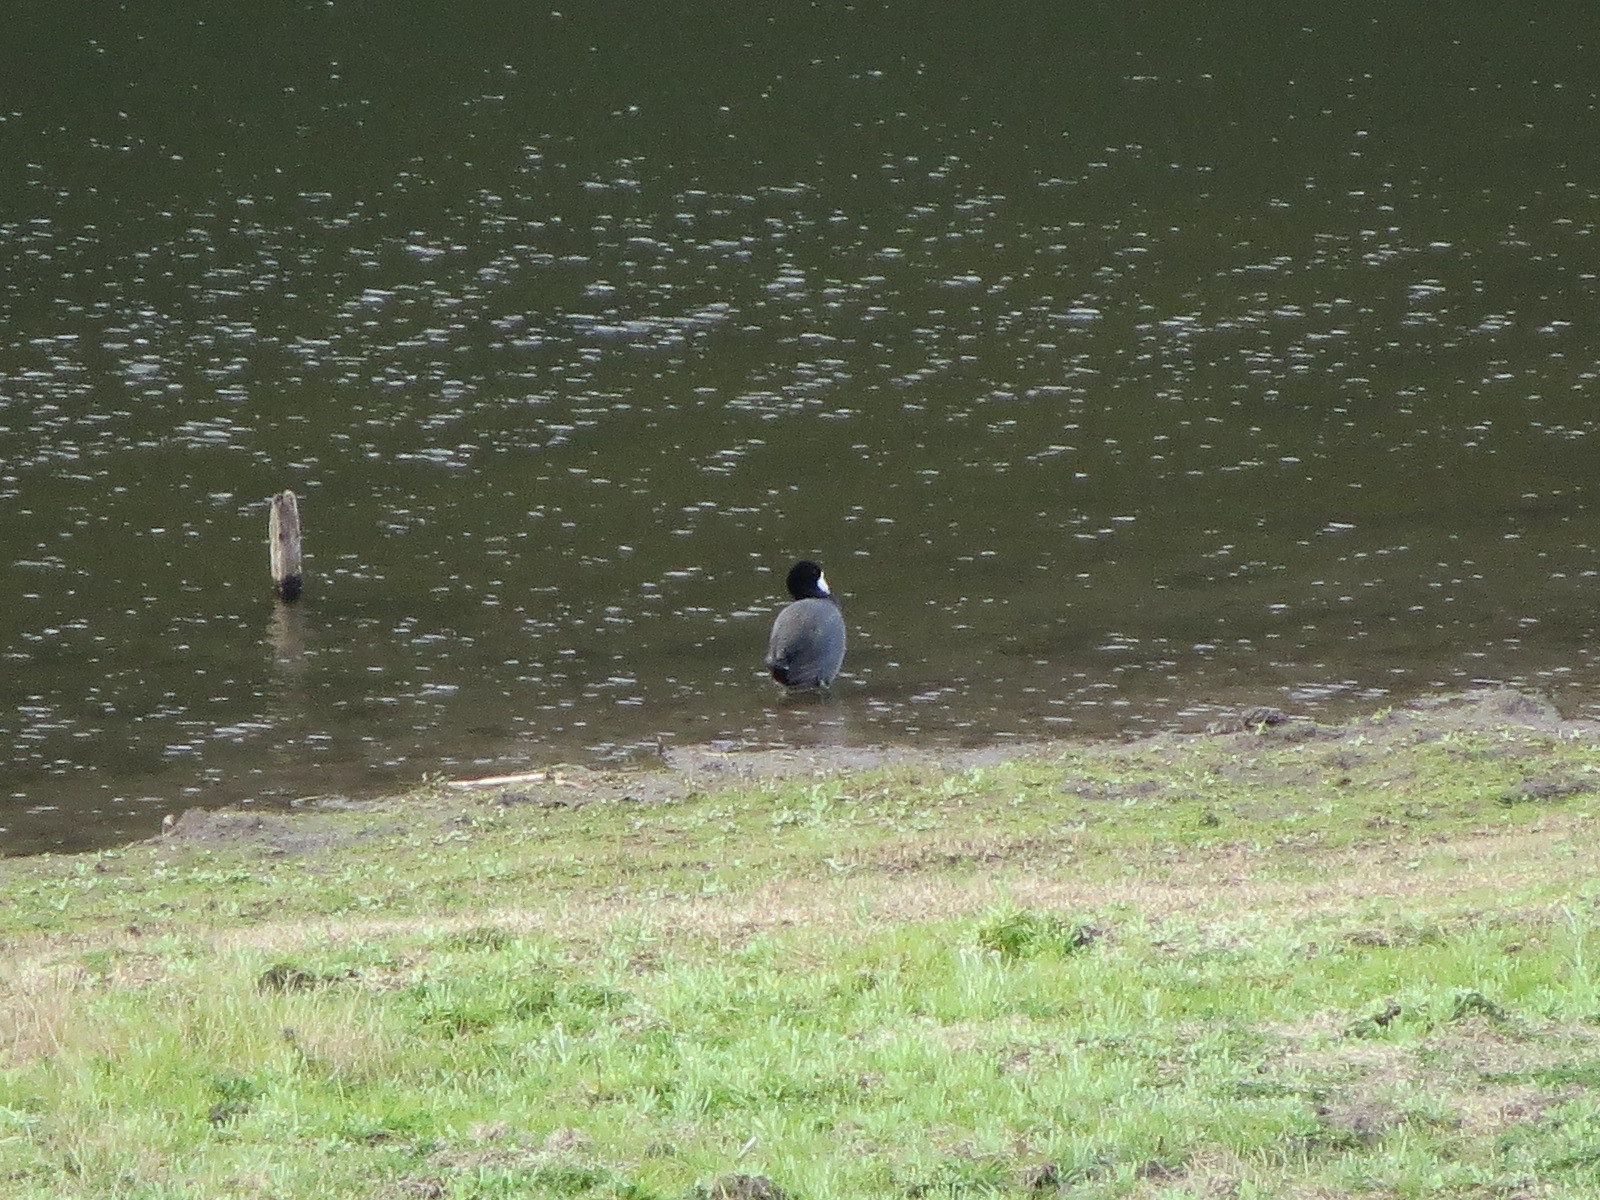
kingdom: Animalia
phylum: Chordata
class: Aves
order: Gruiformes
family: Rallidae
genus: Fulica
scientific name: Fulica americana
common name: American coot
